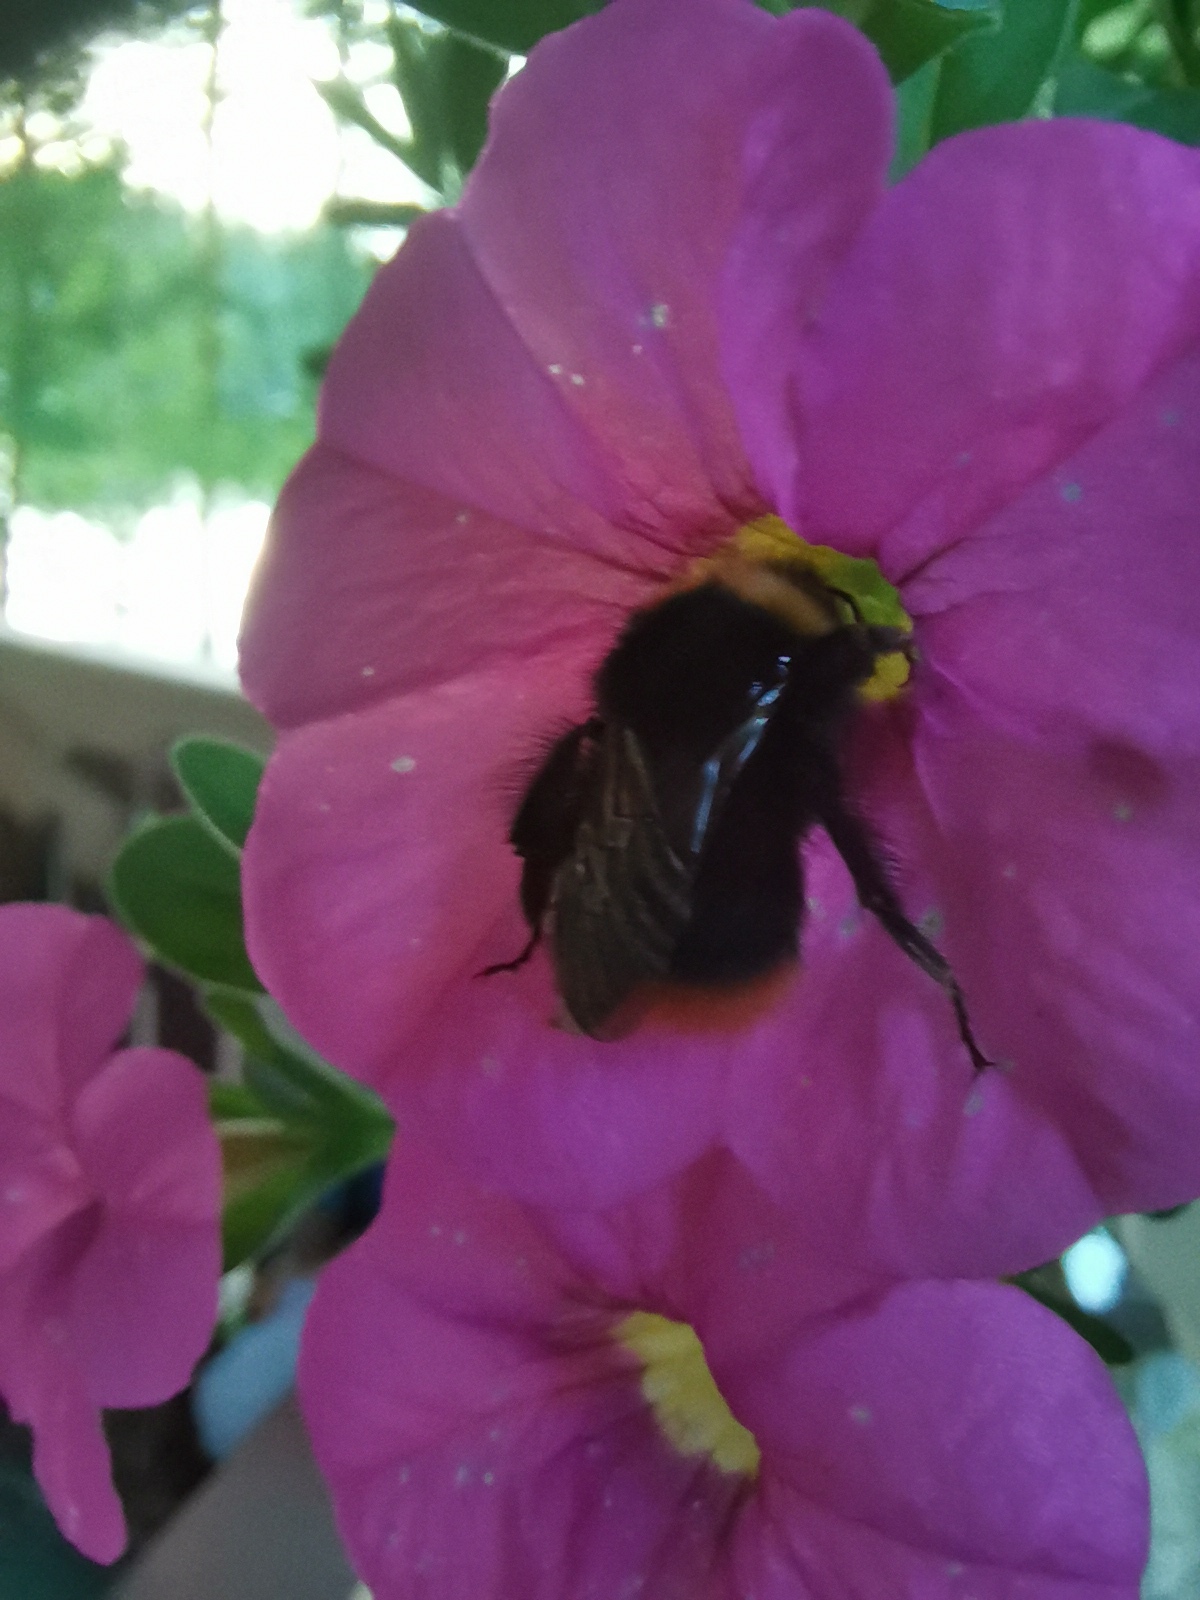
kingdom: Animalia
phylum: Arthropoda
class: Insecta
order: Hymenoptera
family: Apidae
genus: Bombus
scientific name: Bombus pratorum
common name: Early humble-bee
